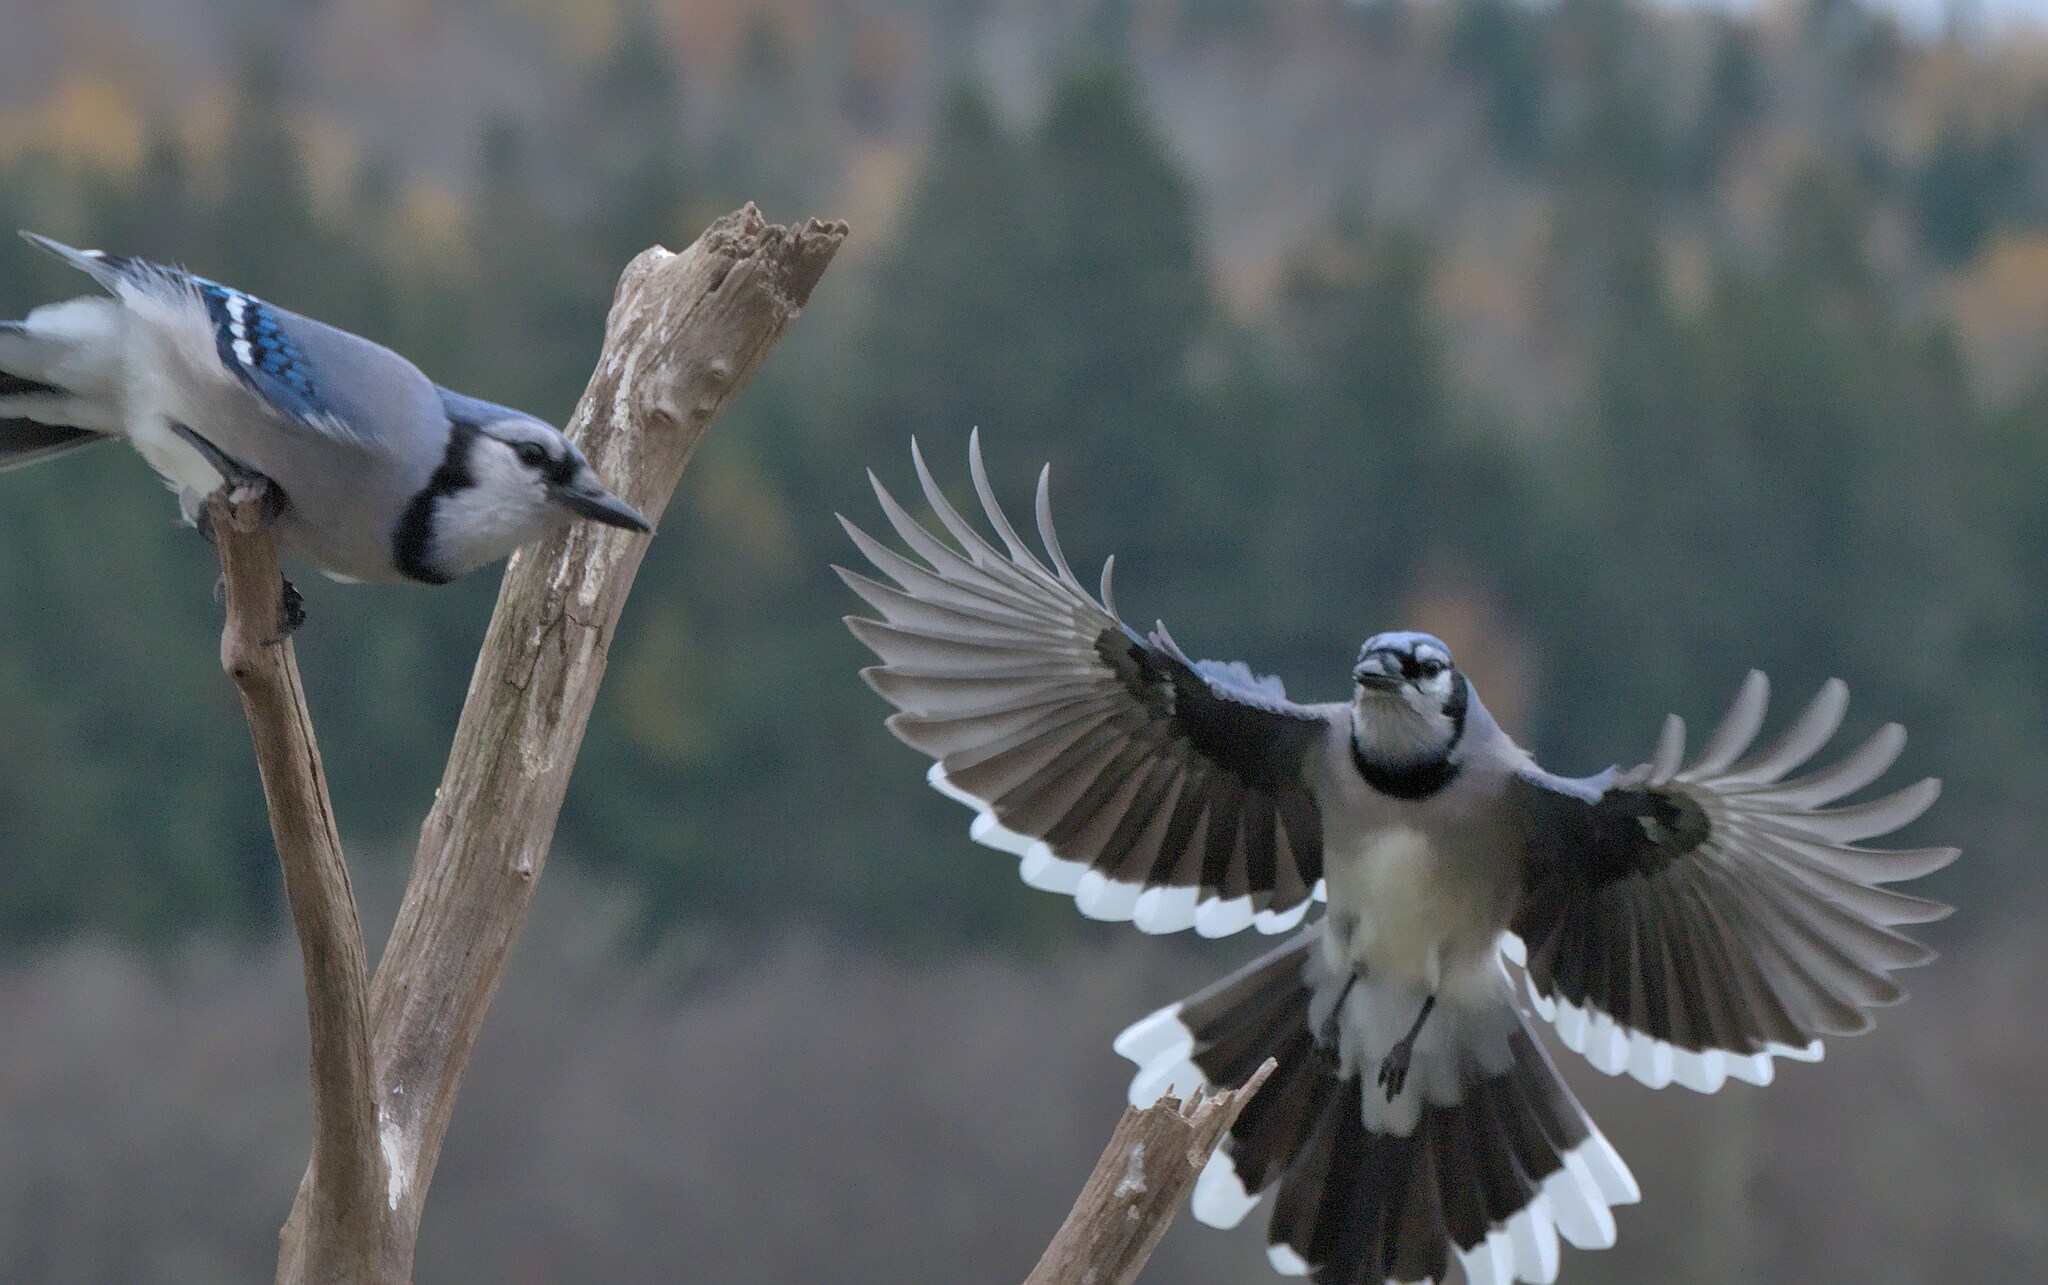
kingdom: Animalia
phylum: Chordata
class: Aves
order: Passeriformes
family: Corvidae
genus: Cyanocitta
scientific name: Cyanocitta cristata
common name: Blue jay
